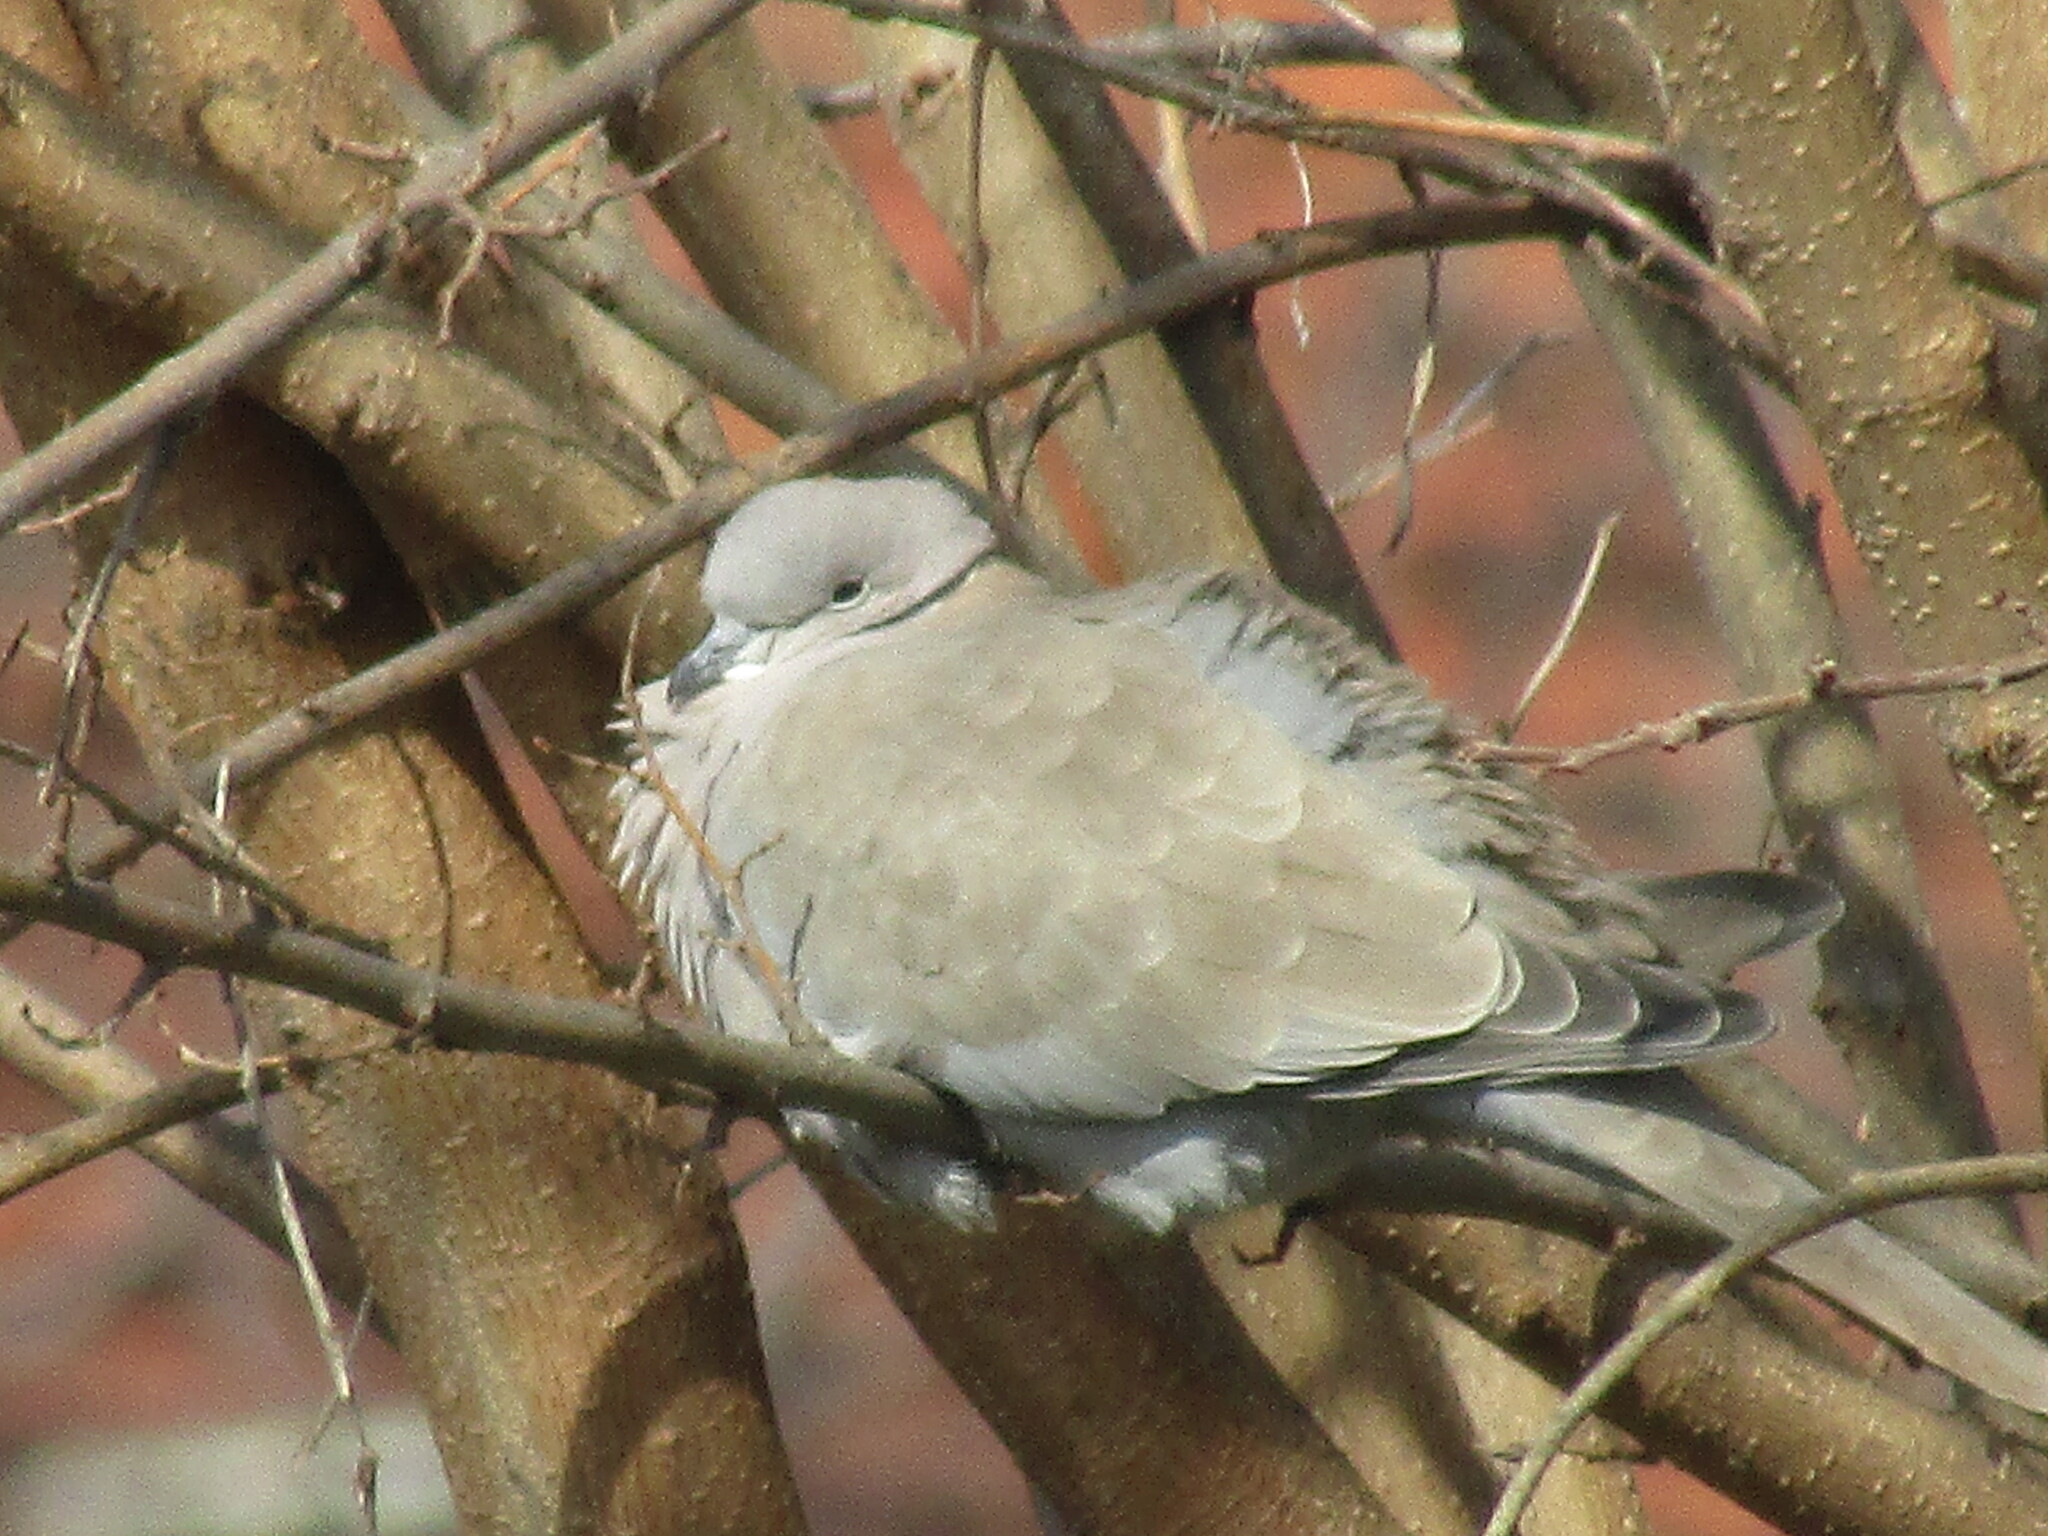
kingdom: Animalia
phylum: Chordata
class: Aves
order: Columbiformes
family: Columbidae
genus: Streptopelia
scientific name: Streptopelia decaocto
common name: Eurasian collared dove
